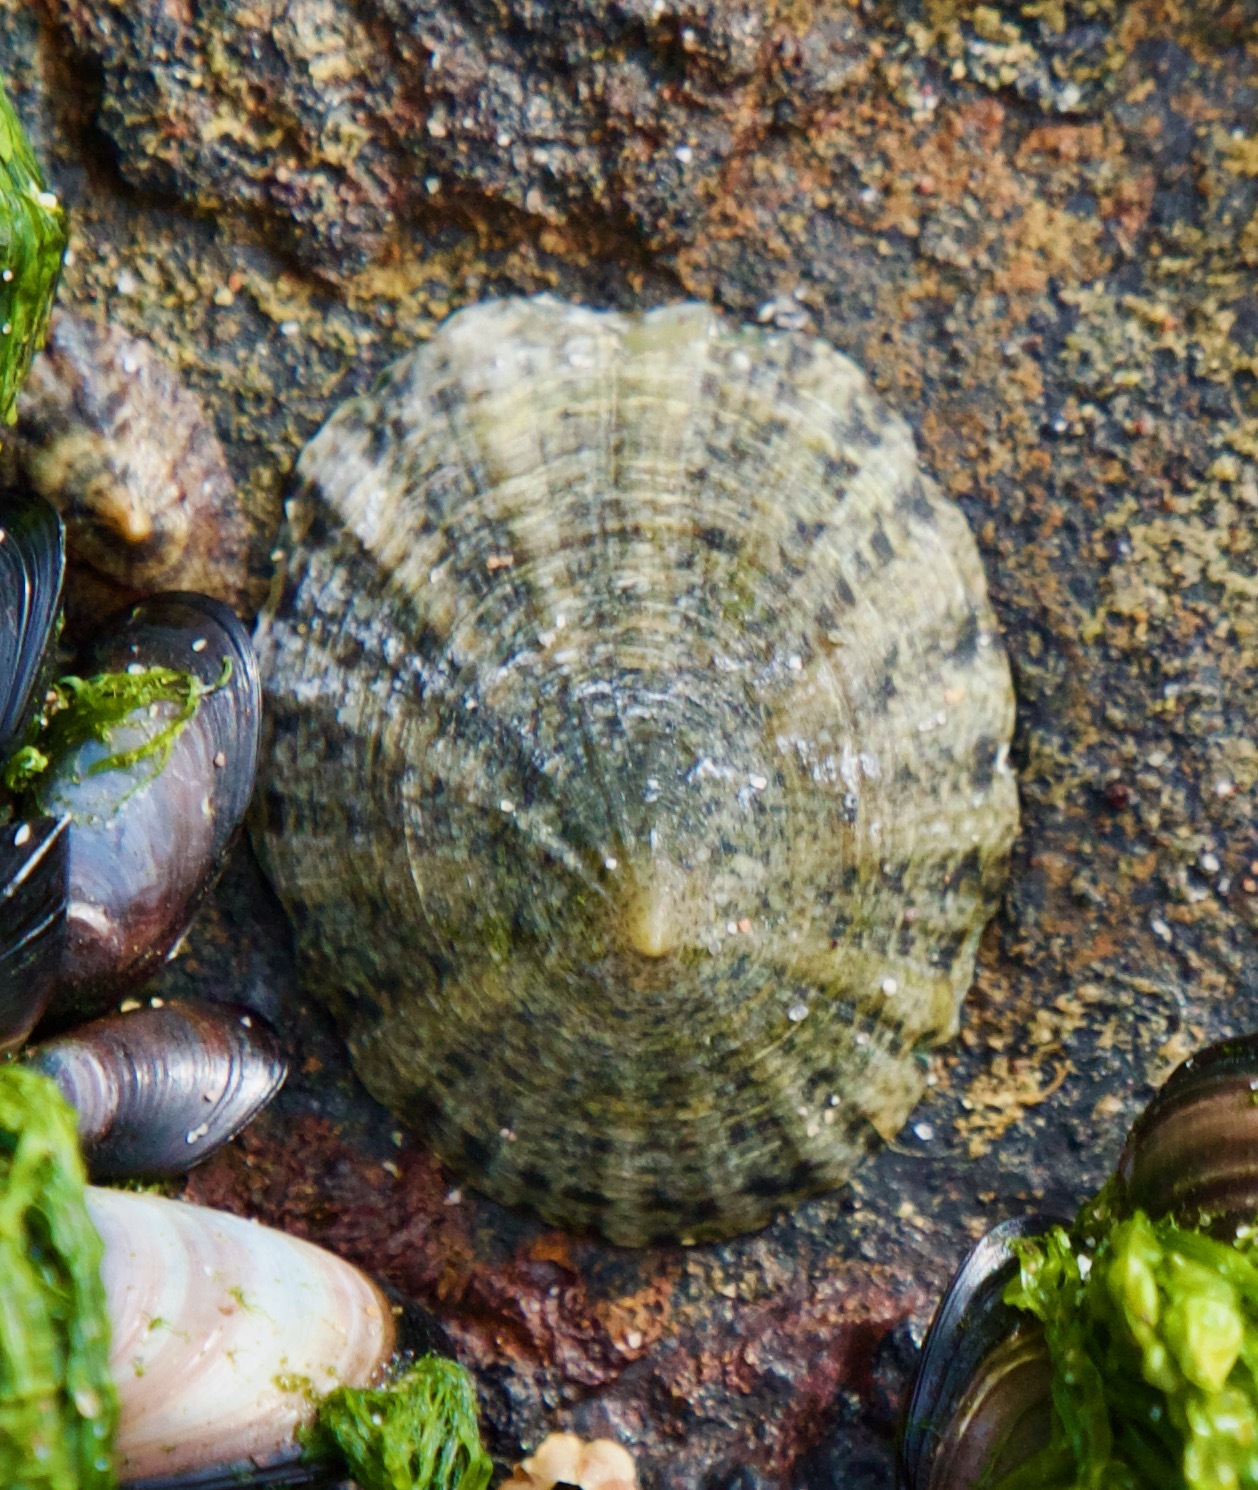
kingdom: Animalia
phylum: Mollusca
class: Gastropoda
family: Lottiidae
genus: Scurria
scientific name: Scurria viridula
